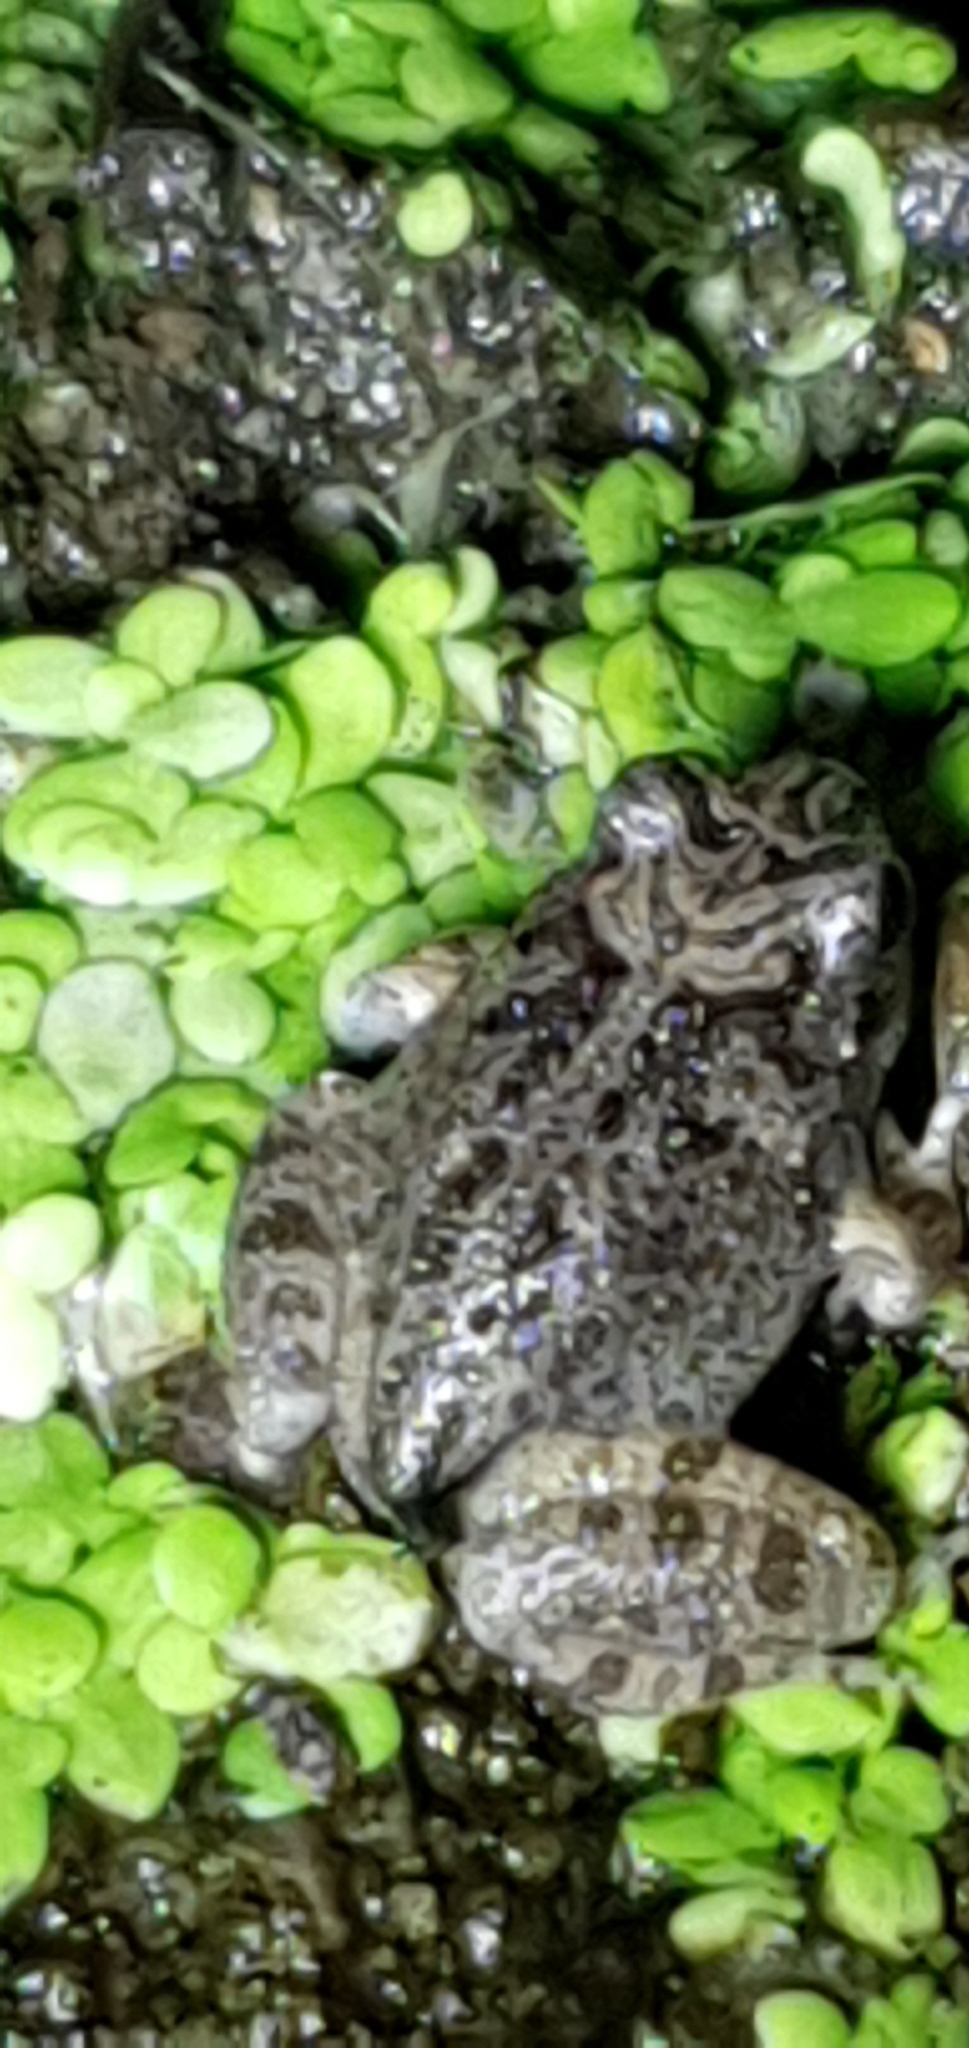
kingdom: Animalia
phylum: Chordata
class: Amphibia
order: Anura
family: Limnodynastidae
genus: Platyplectrum
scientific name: Platyplectrum ornatum
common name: Ornate burrowing frog
